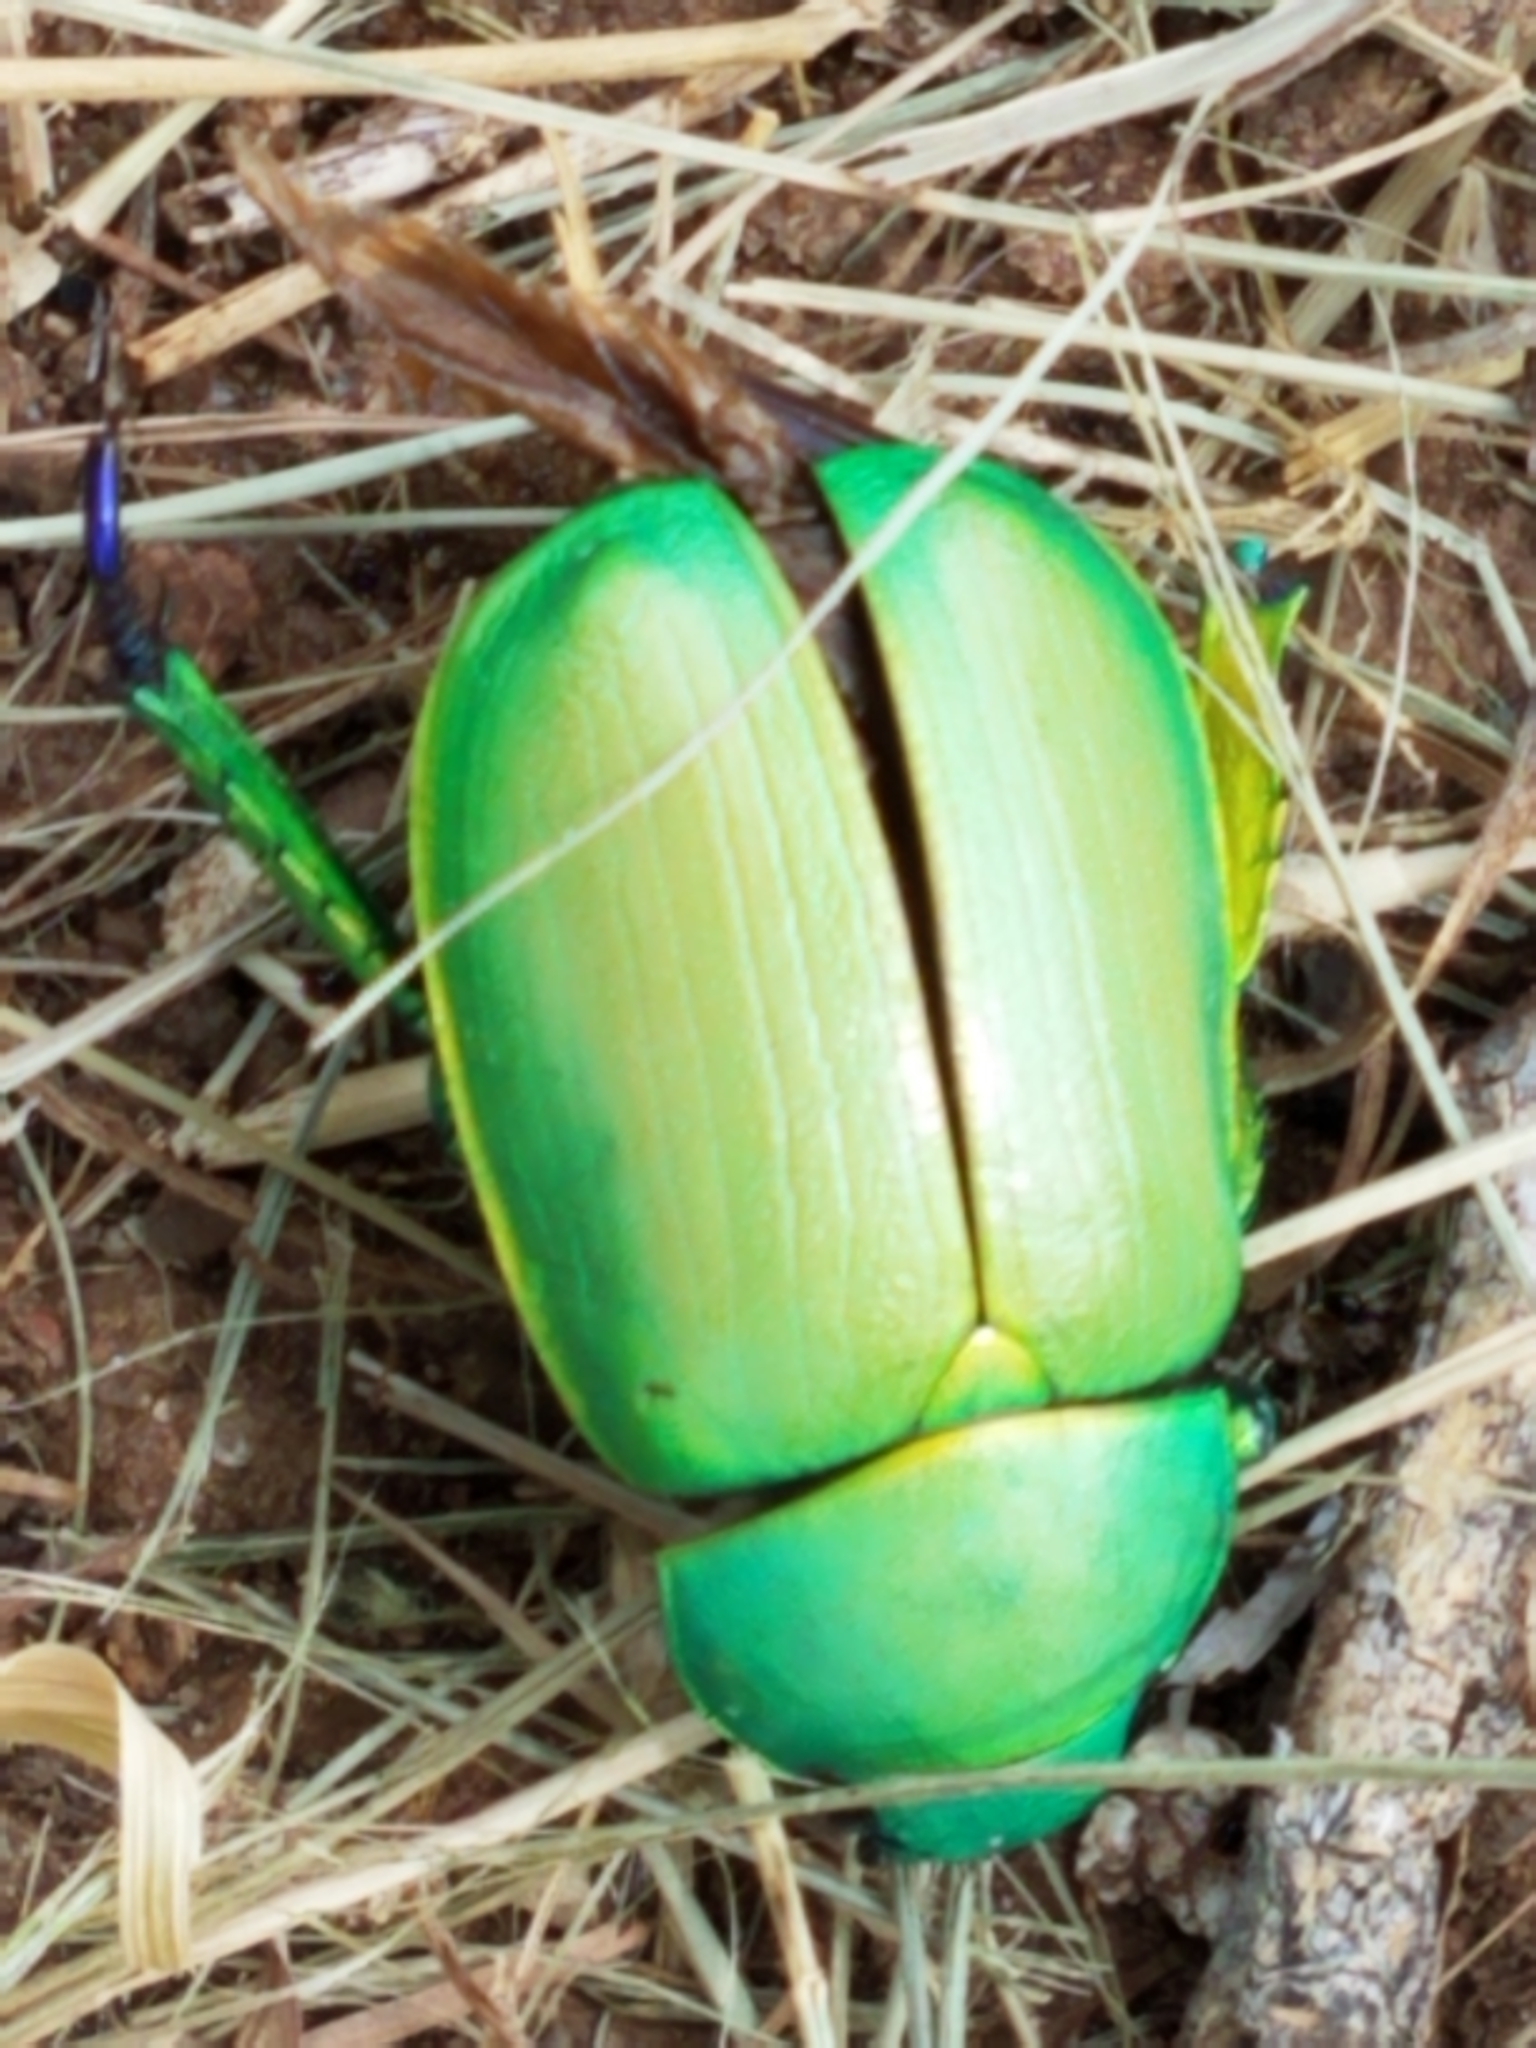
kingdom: Animalia
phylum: Arthropoda
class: Insecta
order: Coleoptera
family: Scarabaeidae
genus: Chrysina
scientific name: Chrysina woodi
